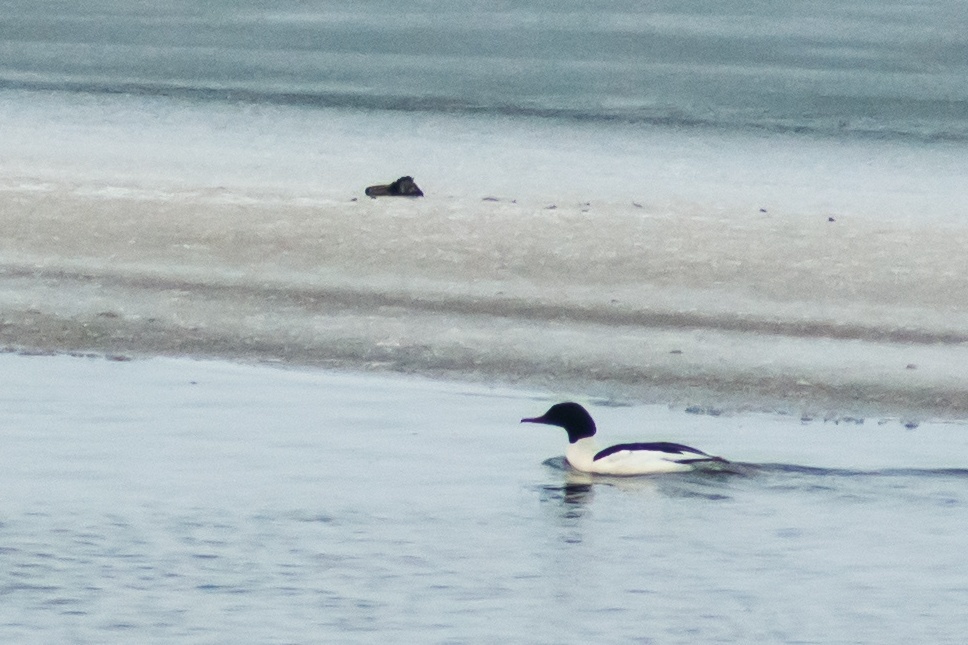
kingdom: Animalia
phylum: Chordata
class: Aves
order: Anseriformes
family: Anatidae
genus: Mergus
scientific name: Mergus merganser
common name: Common merganser
